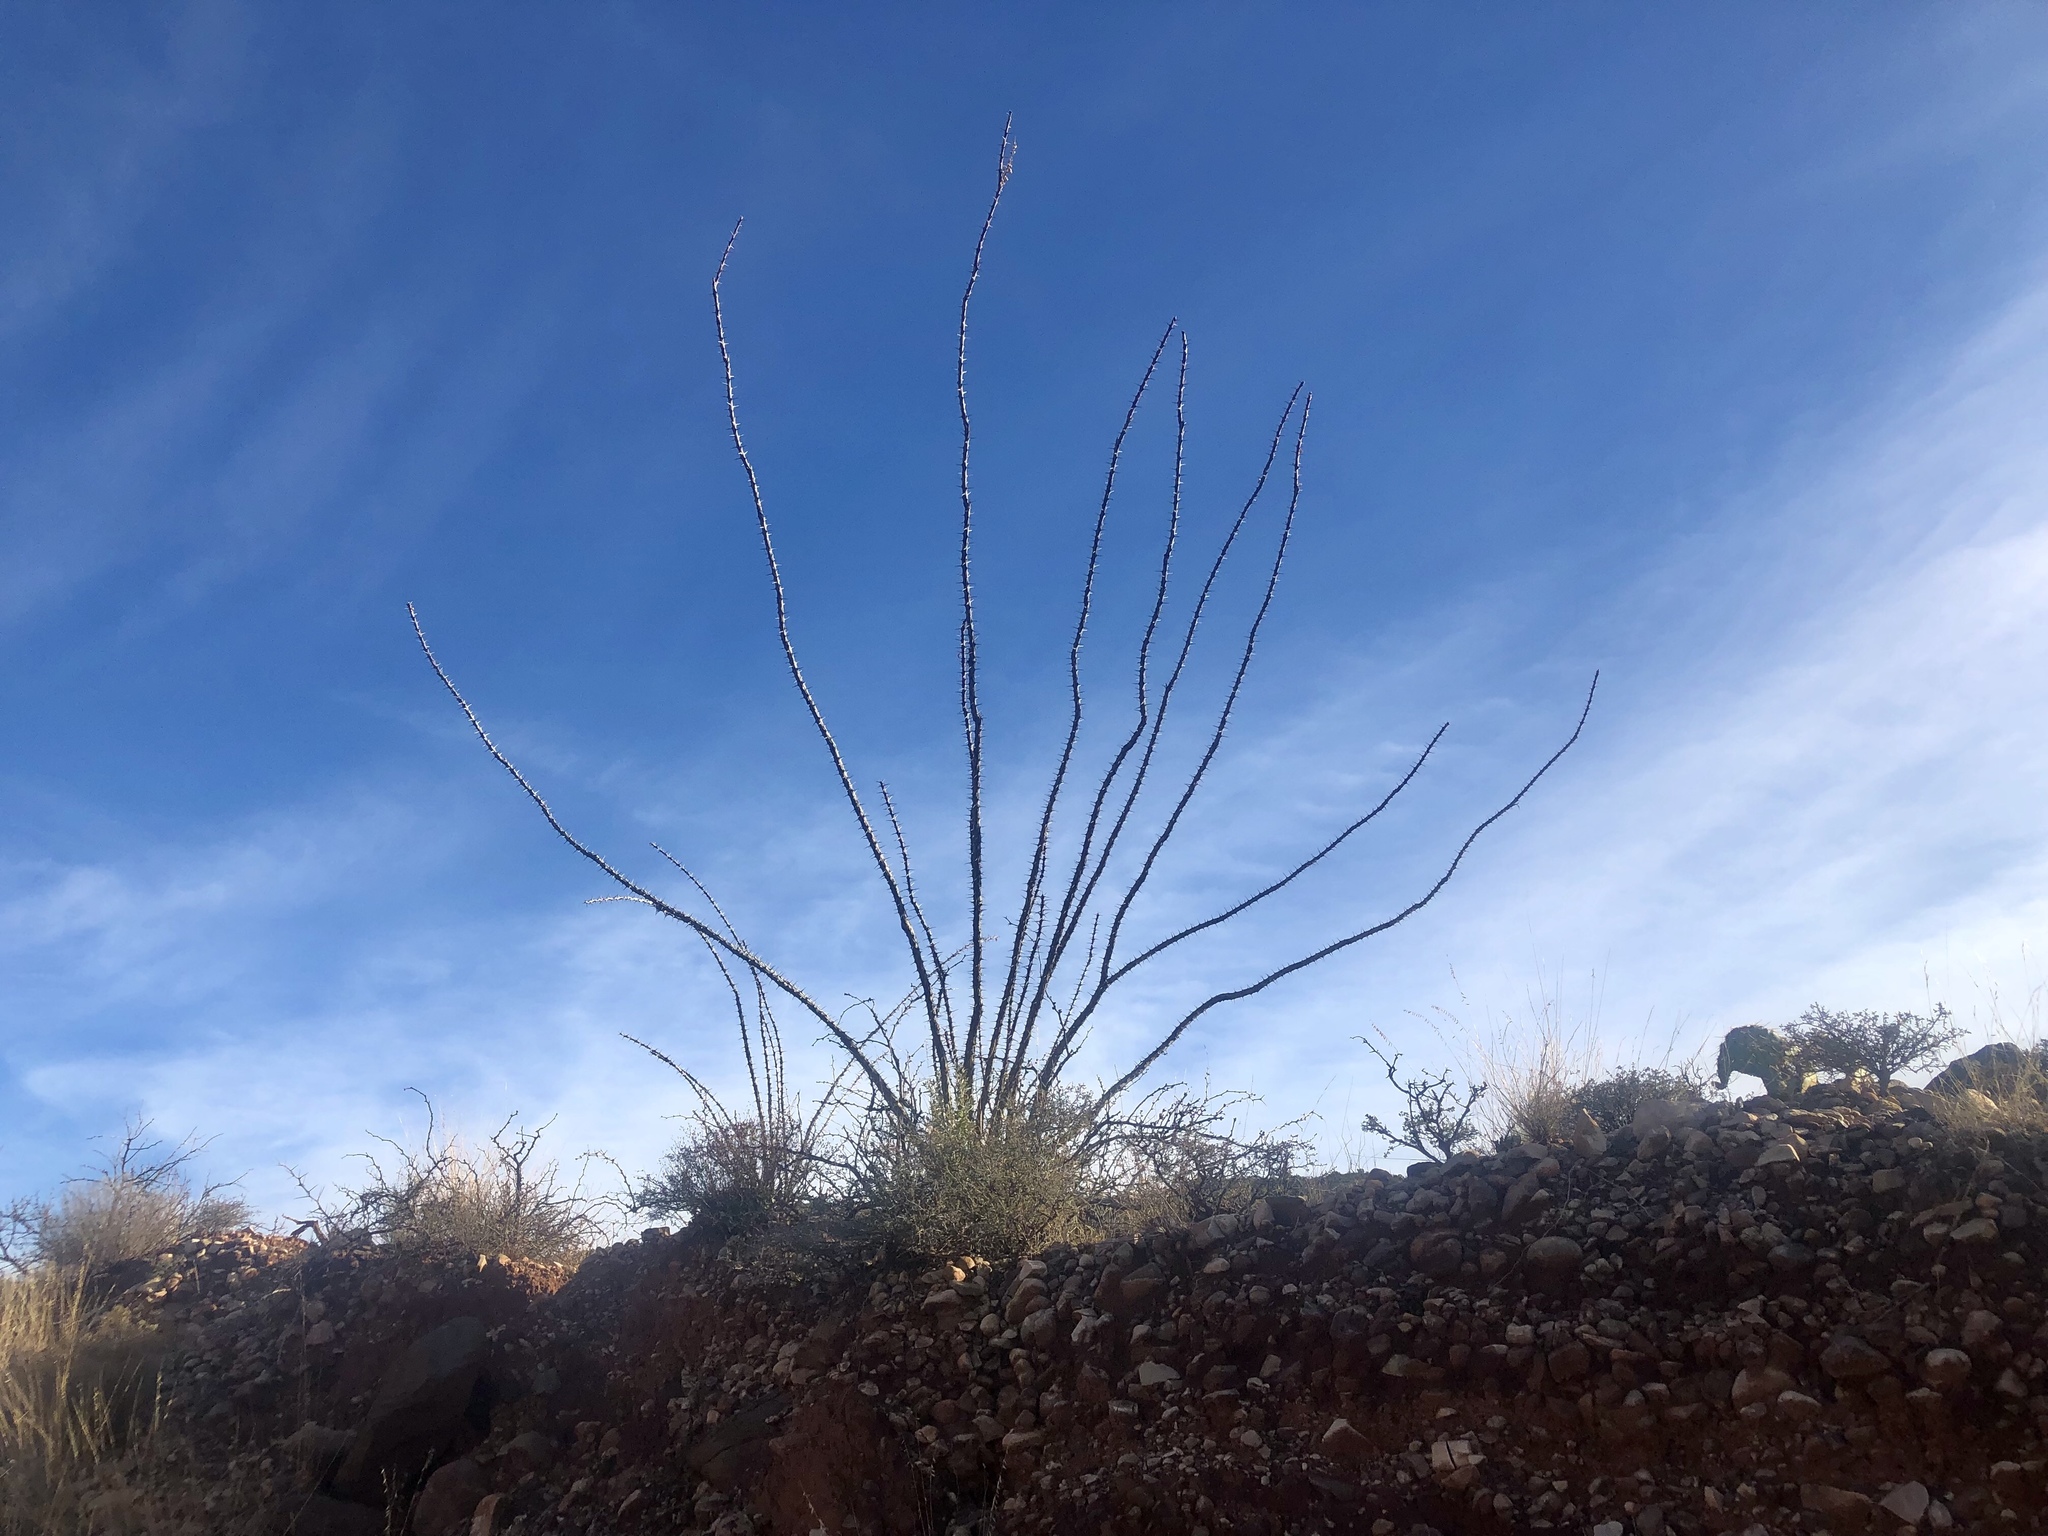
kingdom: Plantae
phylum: Tracheophyta
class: Magnoliopsida
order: Ericales
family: Fouquieriaceae
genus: Fouquieria
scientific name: Fouquieria splendens
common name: Vine-cactus
